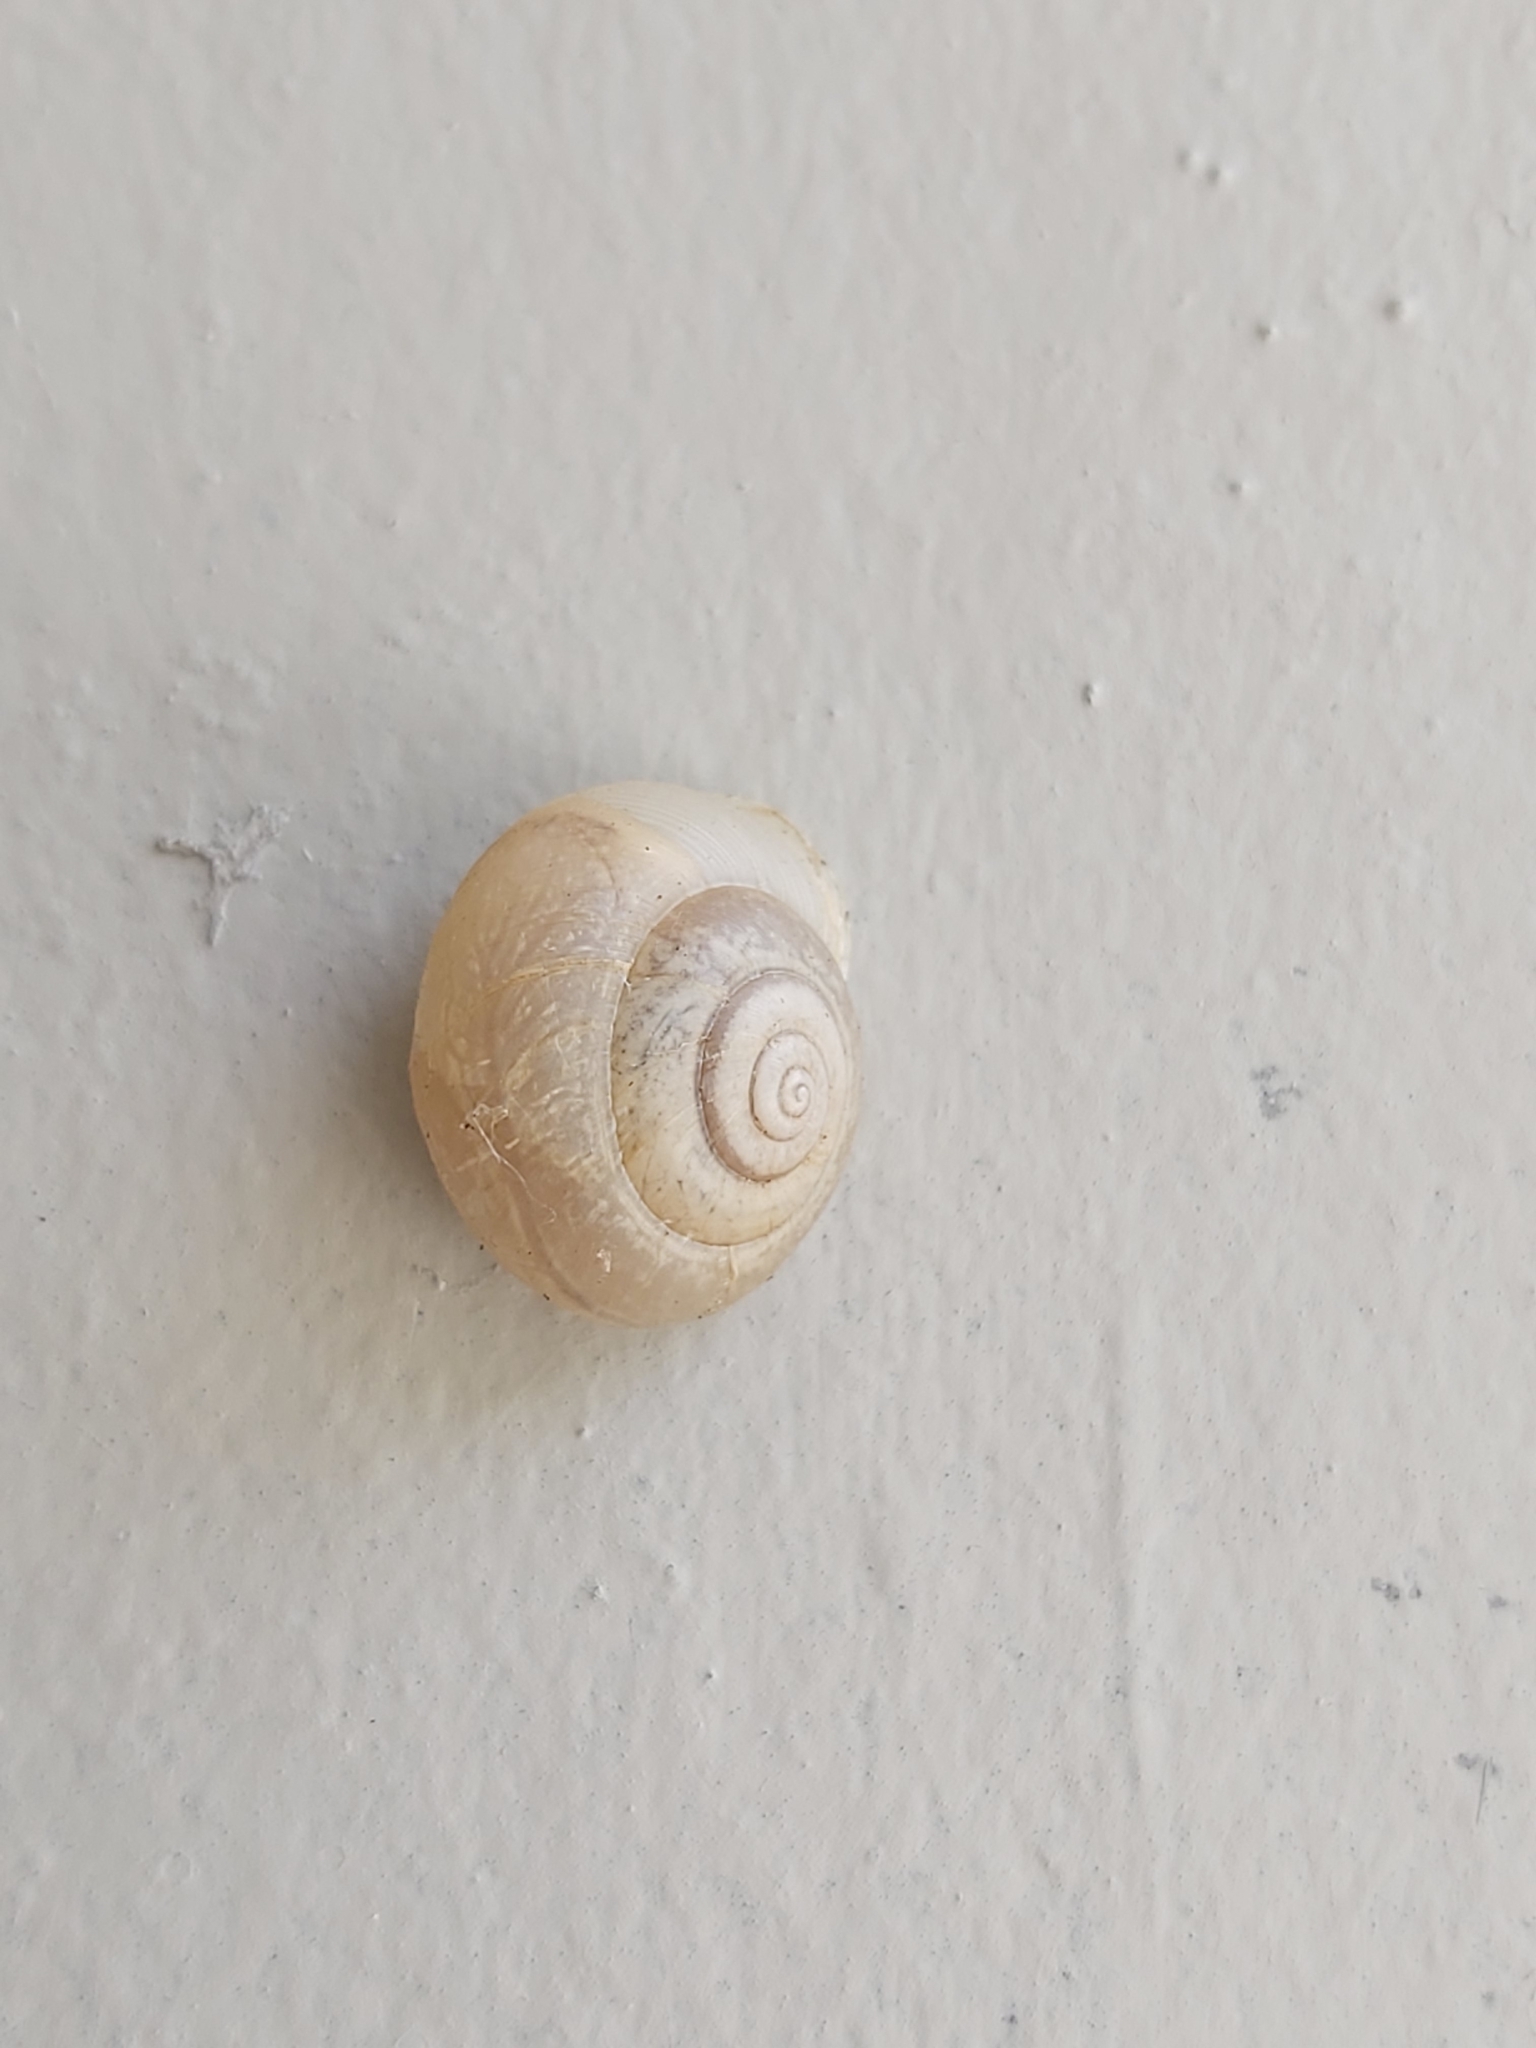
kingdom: Animalia
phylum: Mollusca
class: Gastropoda
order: Stylommatophora
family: Camaenidae
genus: Bradybaena
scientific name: Bradybaena similaris
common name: Asian trampsnail
